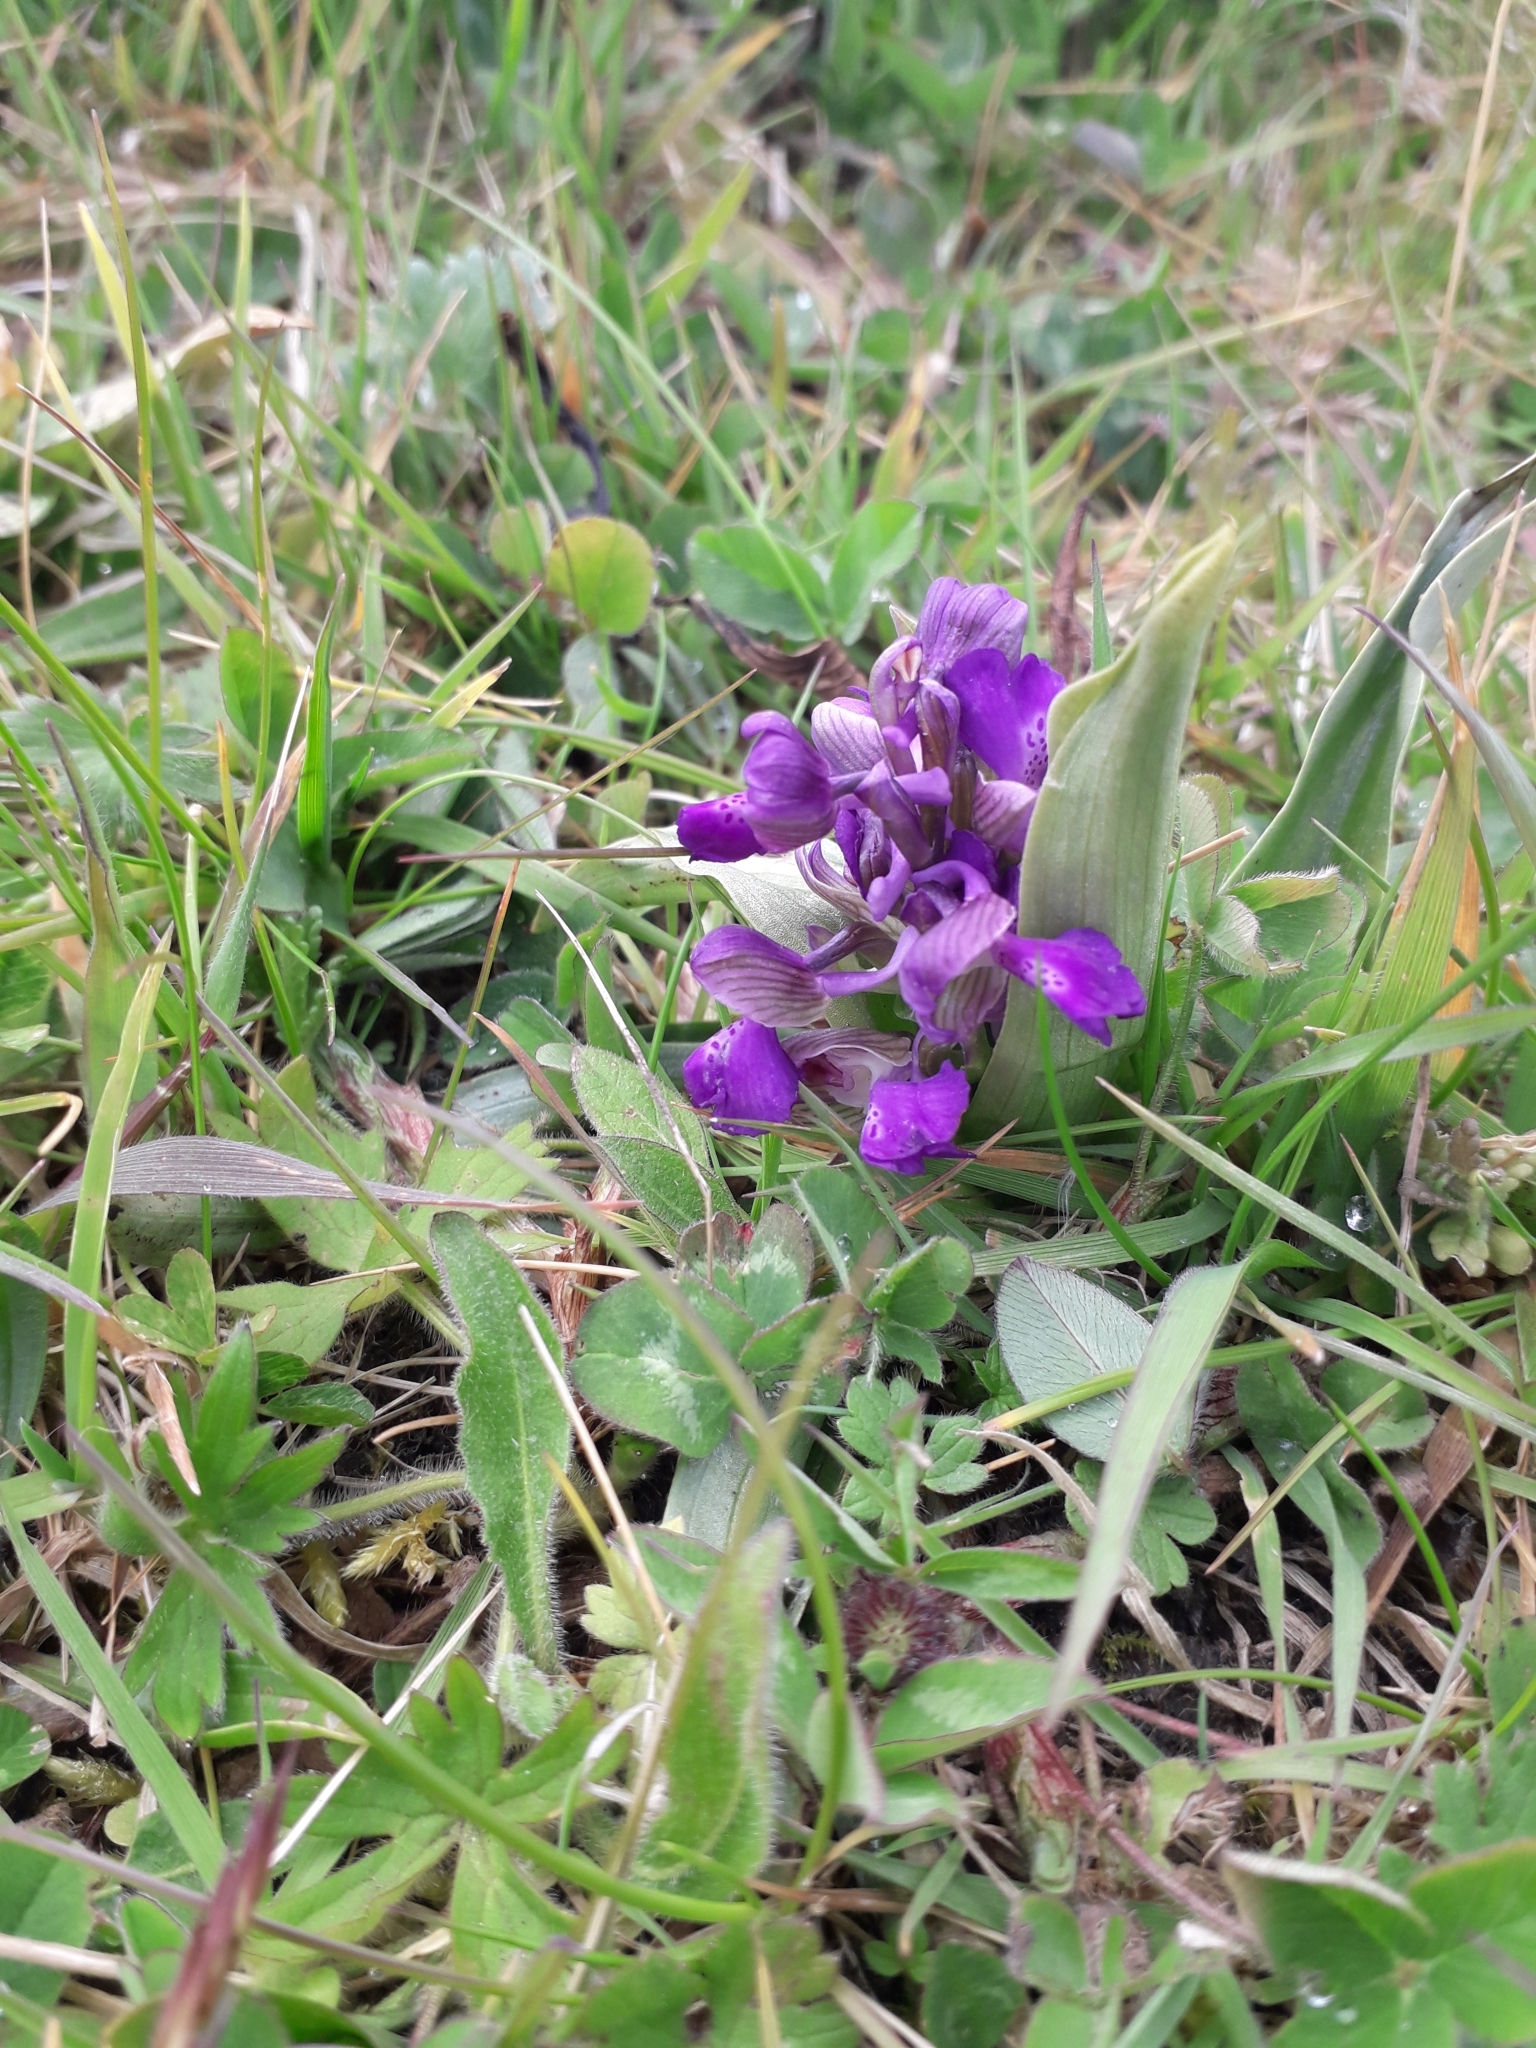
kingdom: Plantae
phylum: Tracheophyta
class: Liliopsida
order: Asparagales
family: Orchidaceae
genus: Anacamptis
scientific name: Anacamptis morio
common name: Green-winged orchid
